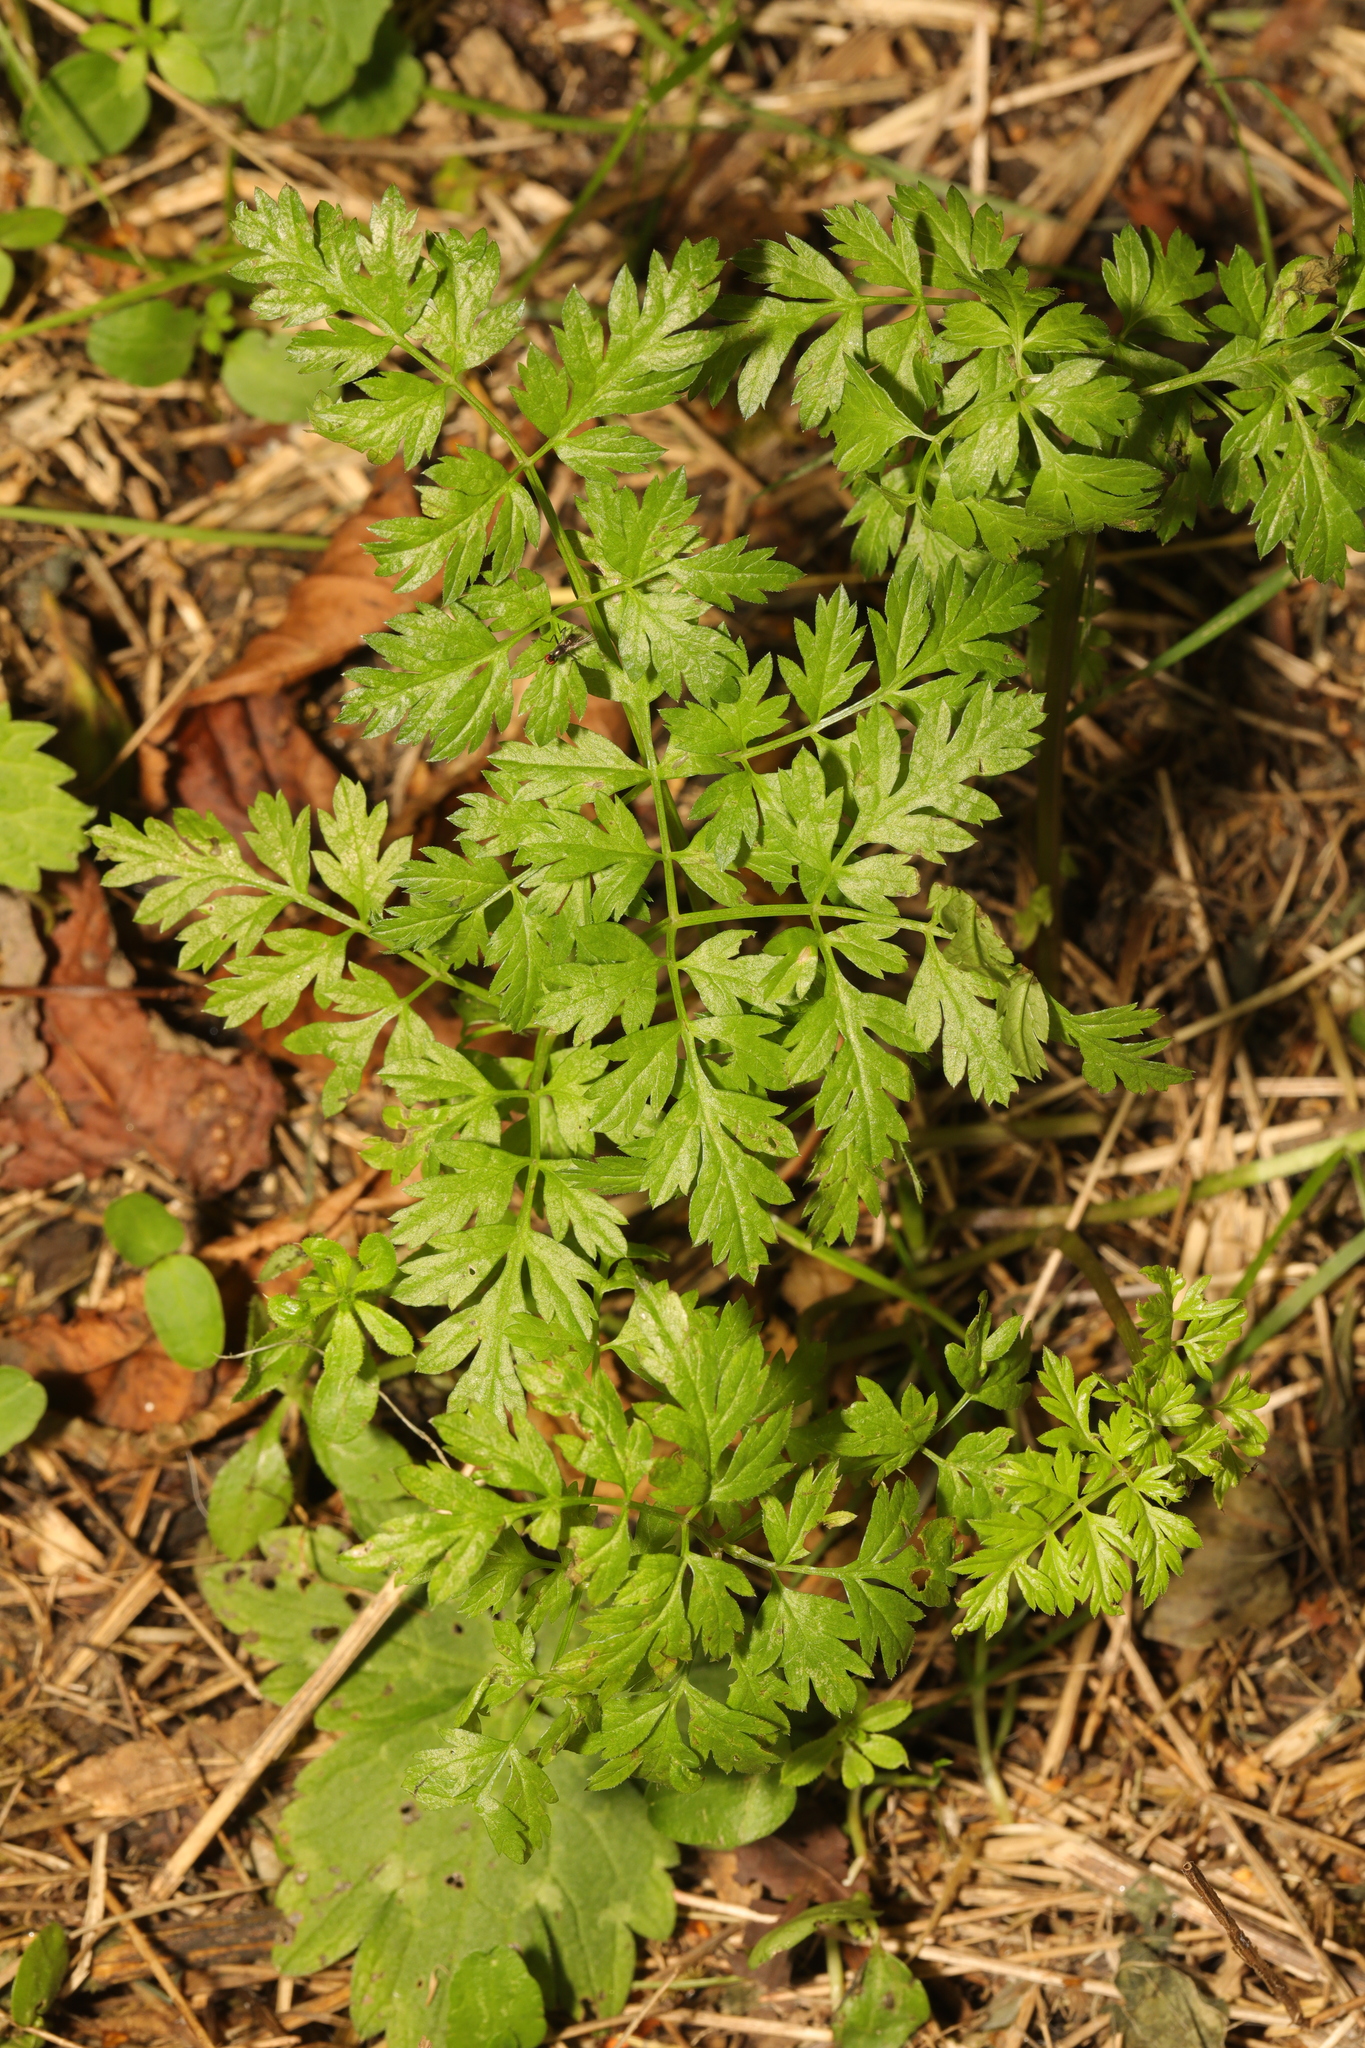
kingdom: Plantae
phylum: Tracheophyta
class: Magnoliopsida
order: Apiales
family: Apiaceae
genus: Anthriscus
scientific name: Anthriscus sylvestris
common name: Cow parsley
